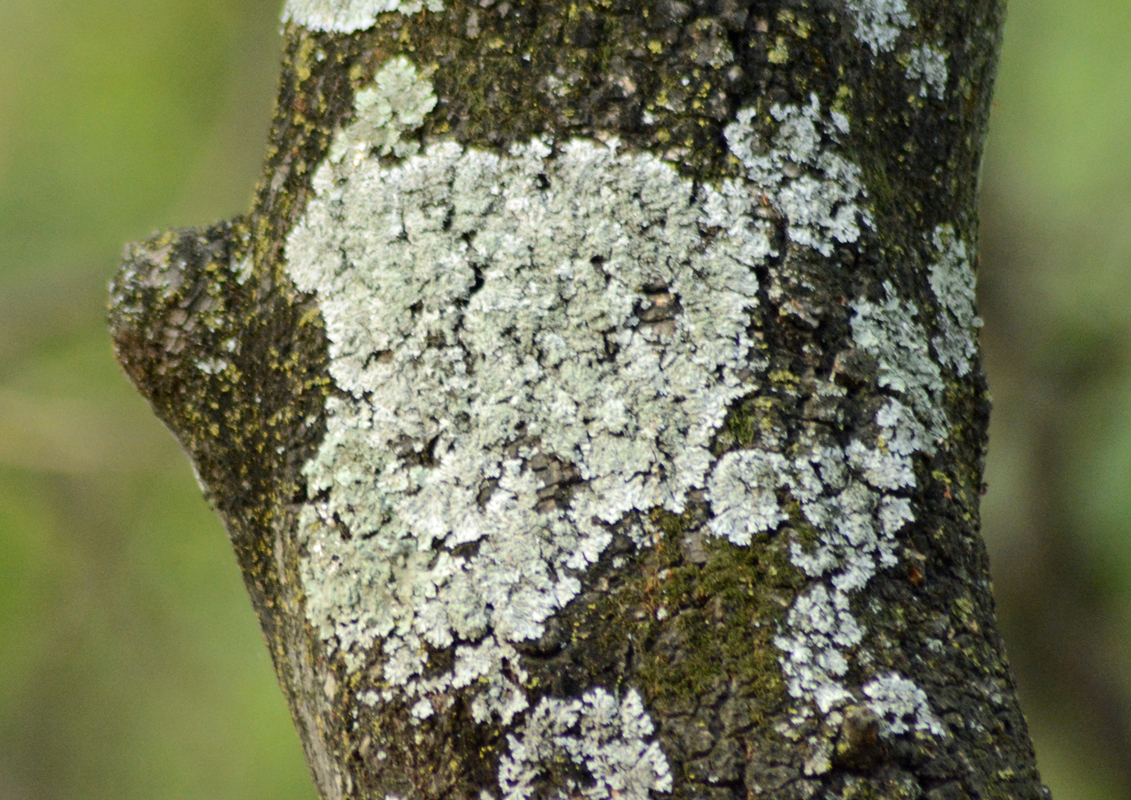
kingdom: Fungi
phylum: Ascomycota
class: Lecanoromycetes
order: Lecanorales
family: Parmeliaceae
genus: Flavopunctelia
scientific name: Flavopunctelia soredica
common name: Powder-edged speckled greenshield
